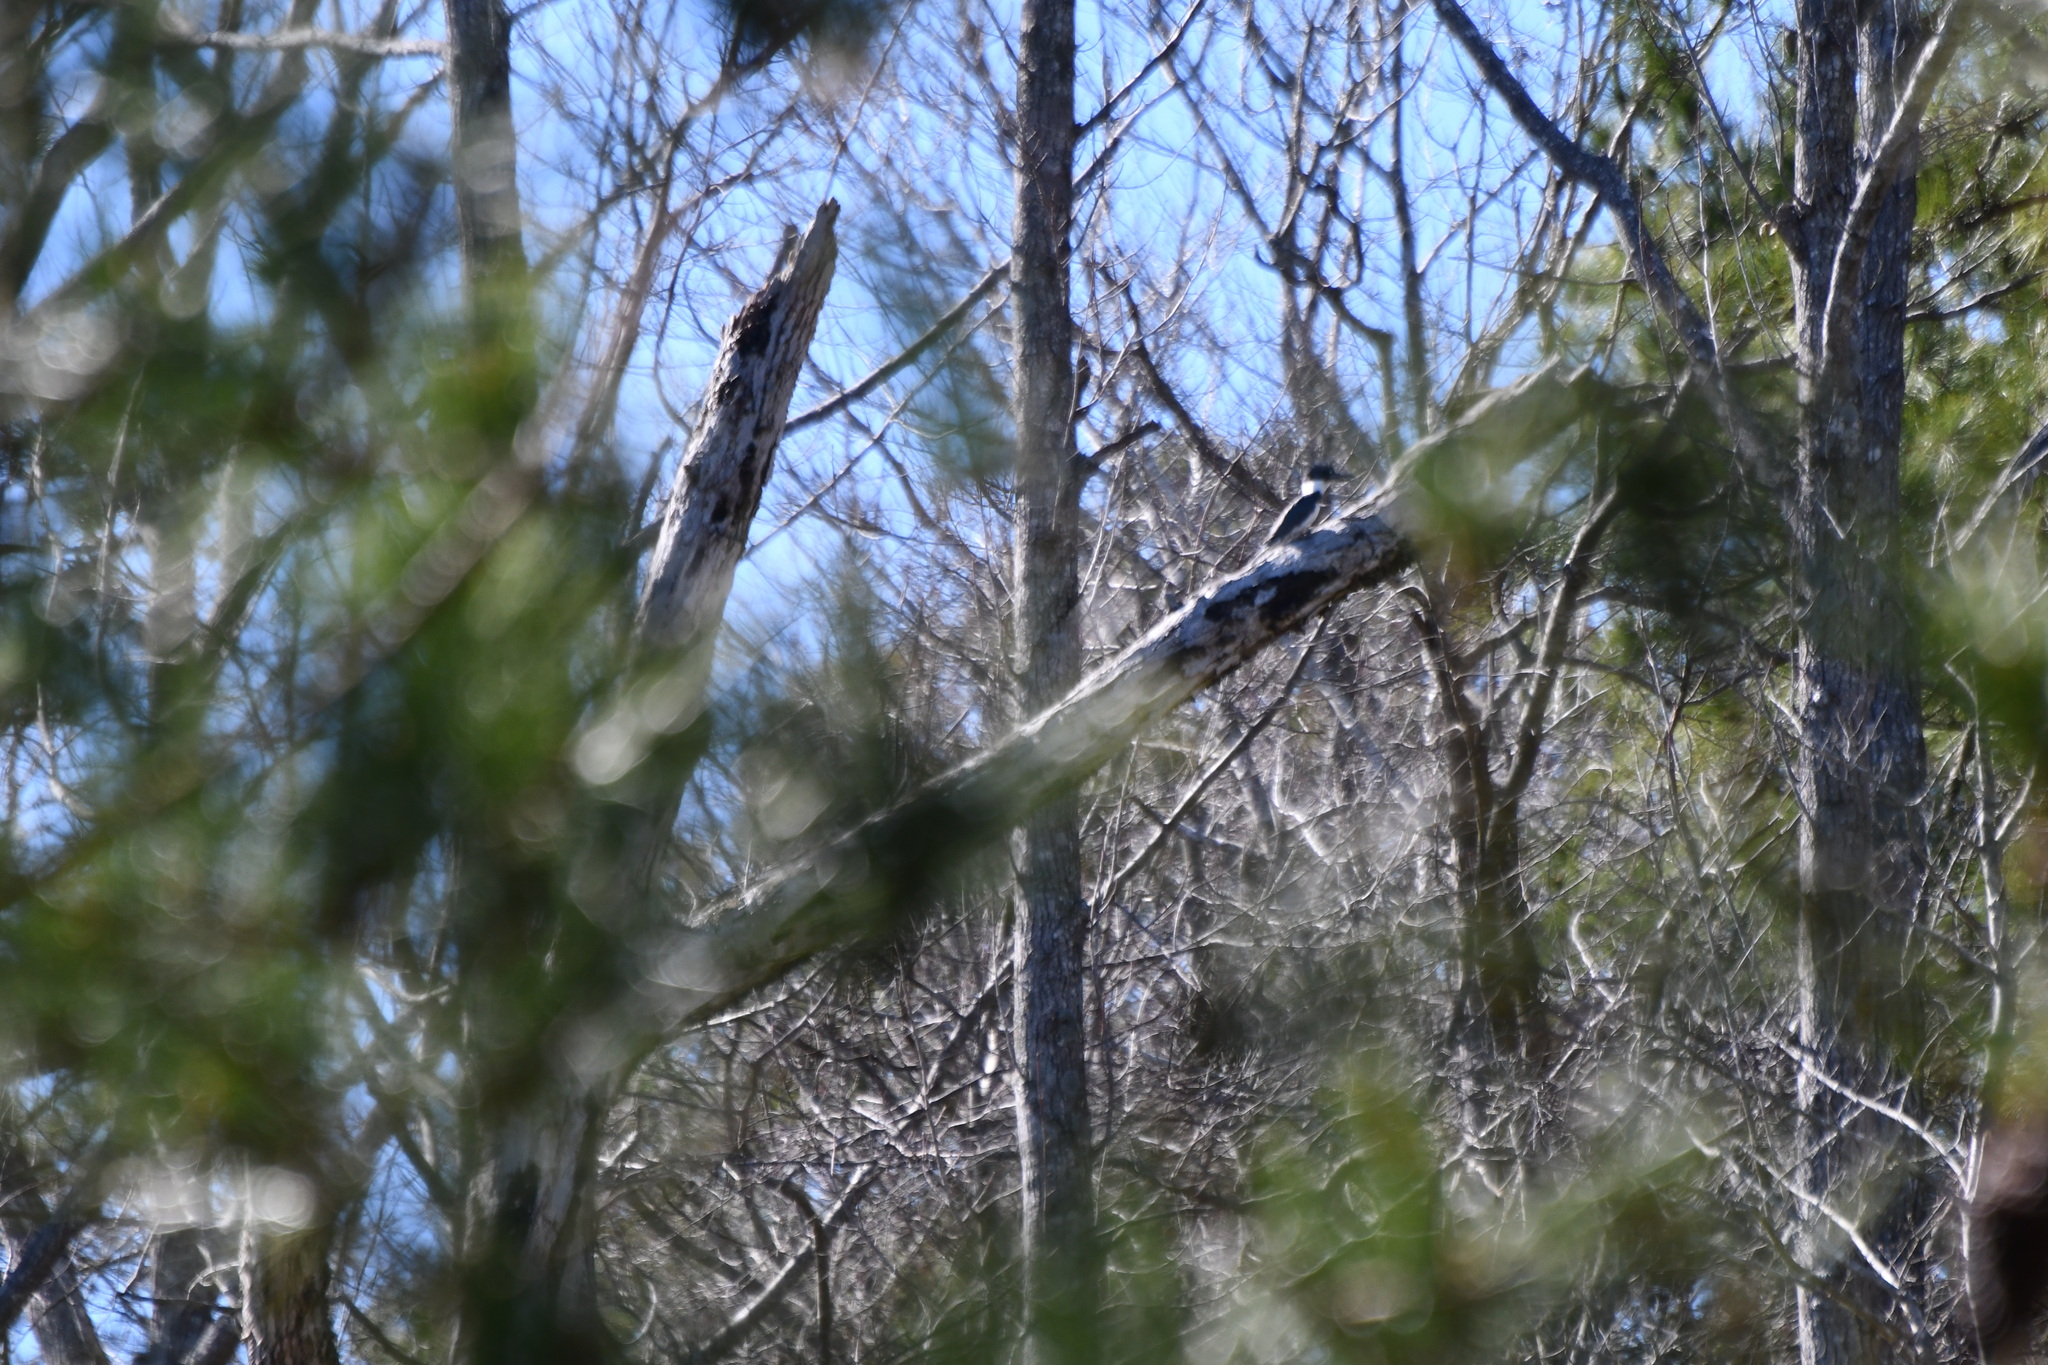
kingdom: Animalia
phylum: Chordata
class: Aves
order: Coraciiformes
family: Alcedinidae
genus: Megaceryle
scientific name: Megaceryle alcyon
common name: Belted kingfisher
